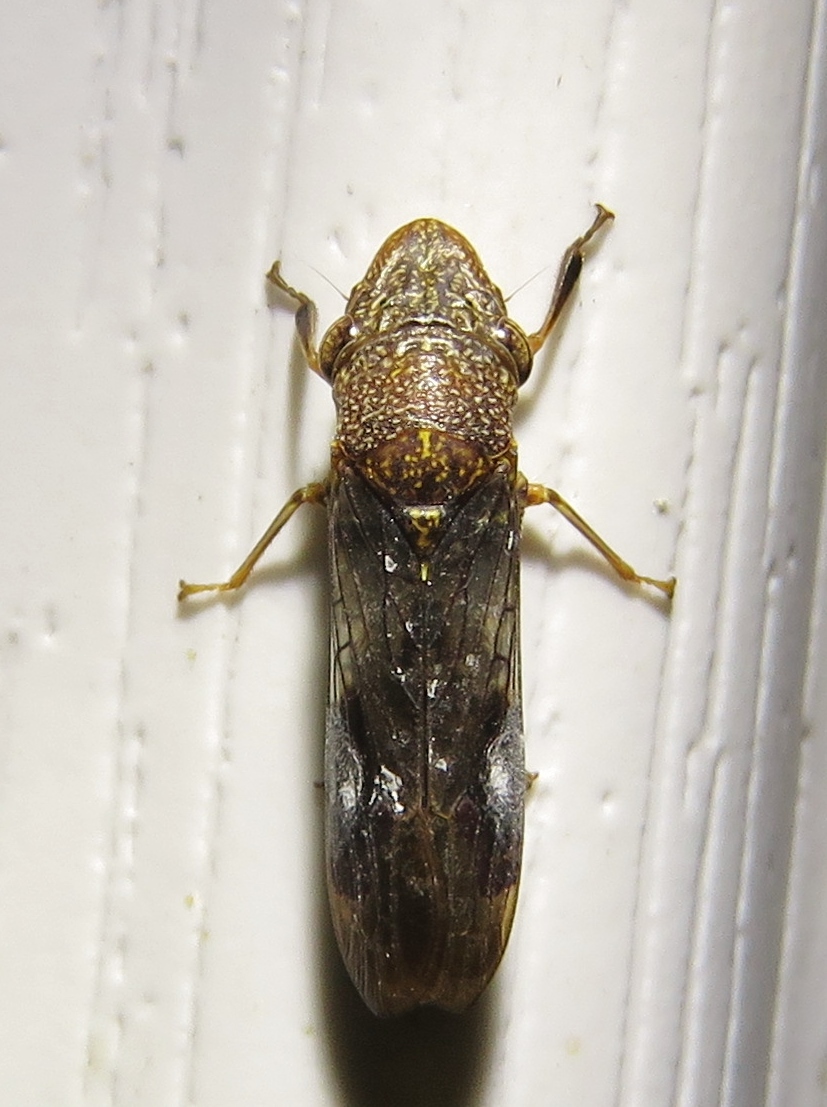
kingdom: Animalia
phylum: Arthropoda
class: Insecta
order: Hemiptera
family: Cicadellidae
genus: Homalodisca
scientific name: Homalodisca vitripennis
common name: Glassy-winged sharpshooter
